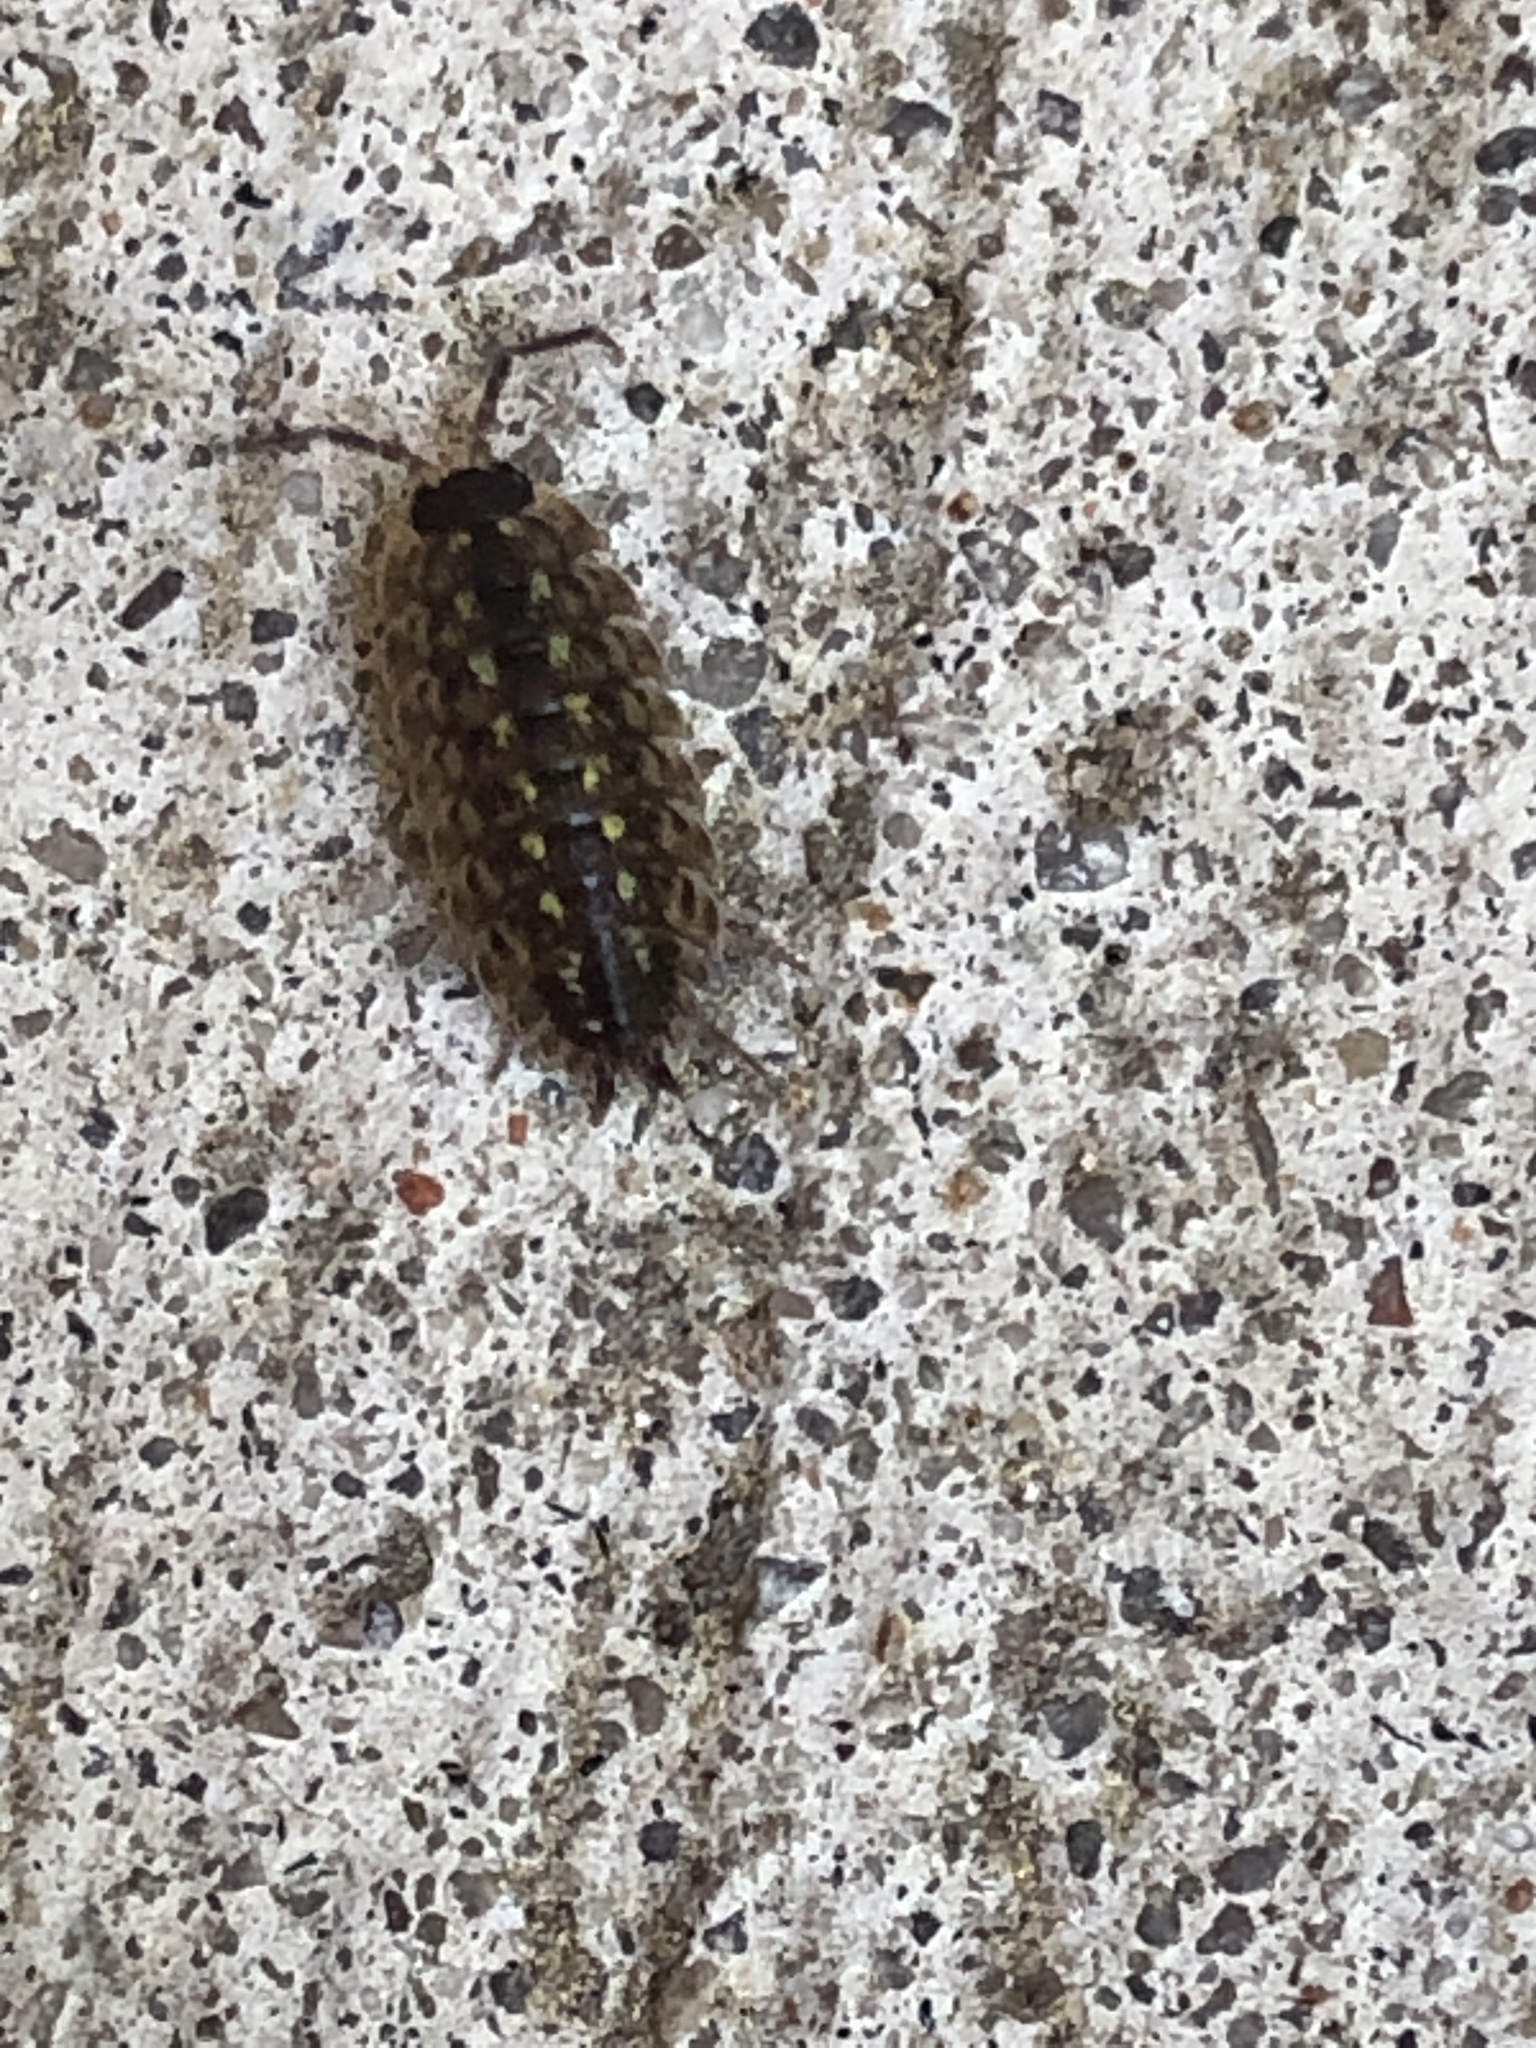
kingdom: Animalia
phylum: Arthropoda
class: Malacostraca
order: Isopoda
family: Porcellionidae
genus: Porcellio
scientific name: Porcellio spinicornis
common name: Painted woodlouse
